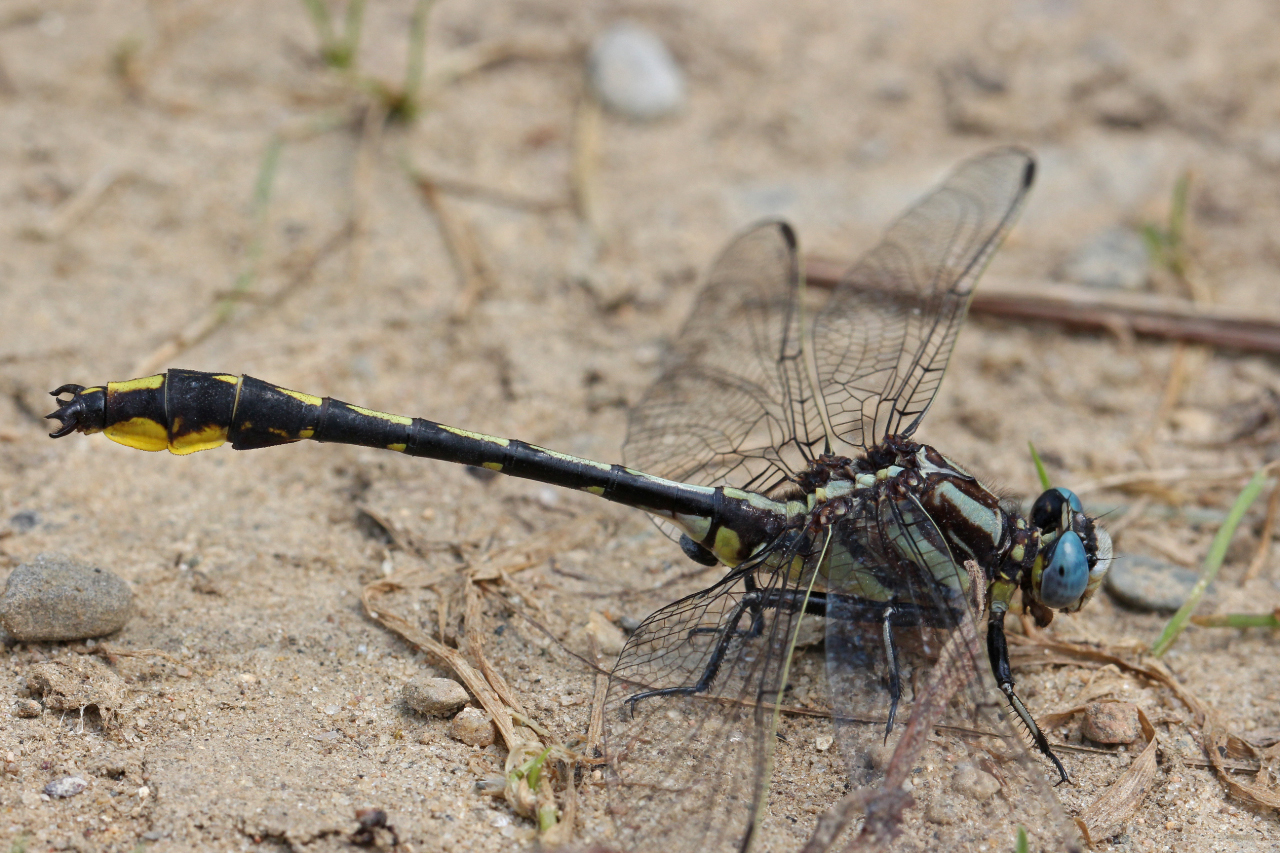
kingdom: Animalia
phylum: Arthropoda
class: Insecta
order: Odonata
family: Gomphidae
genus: Phanogomphus
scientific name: Phanogomphus graslinellus
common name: Pronghorn clubtail
